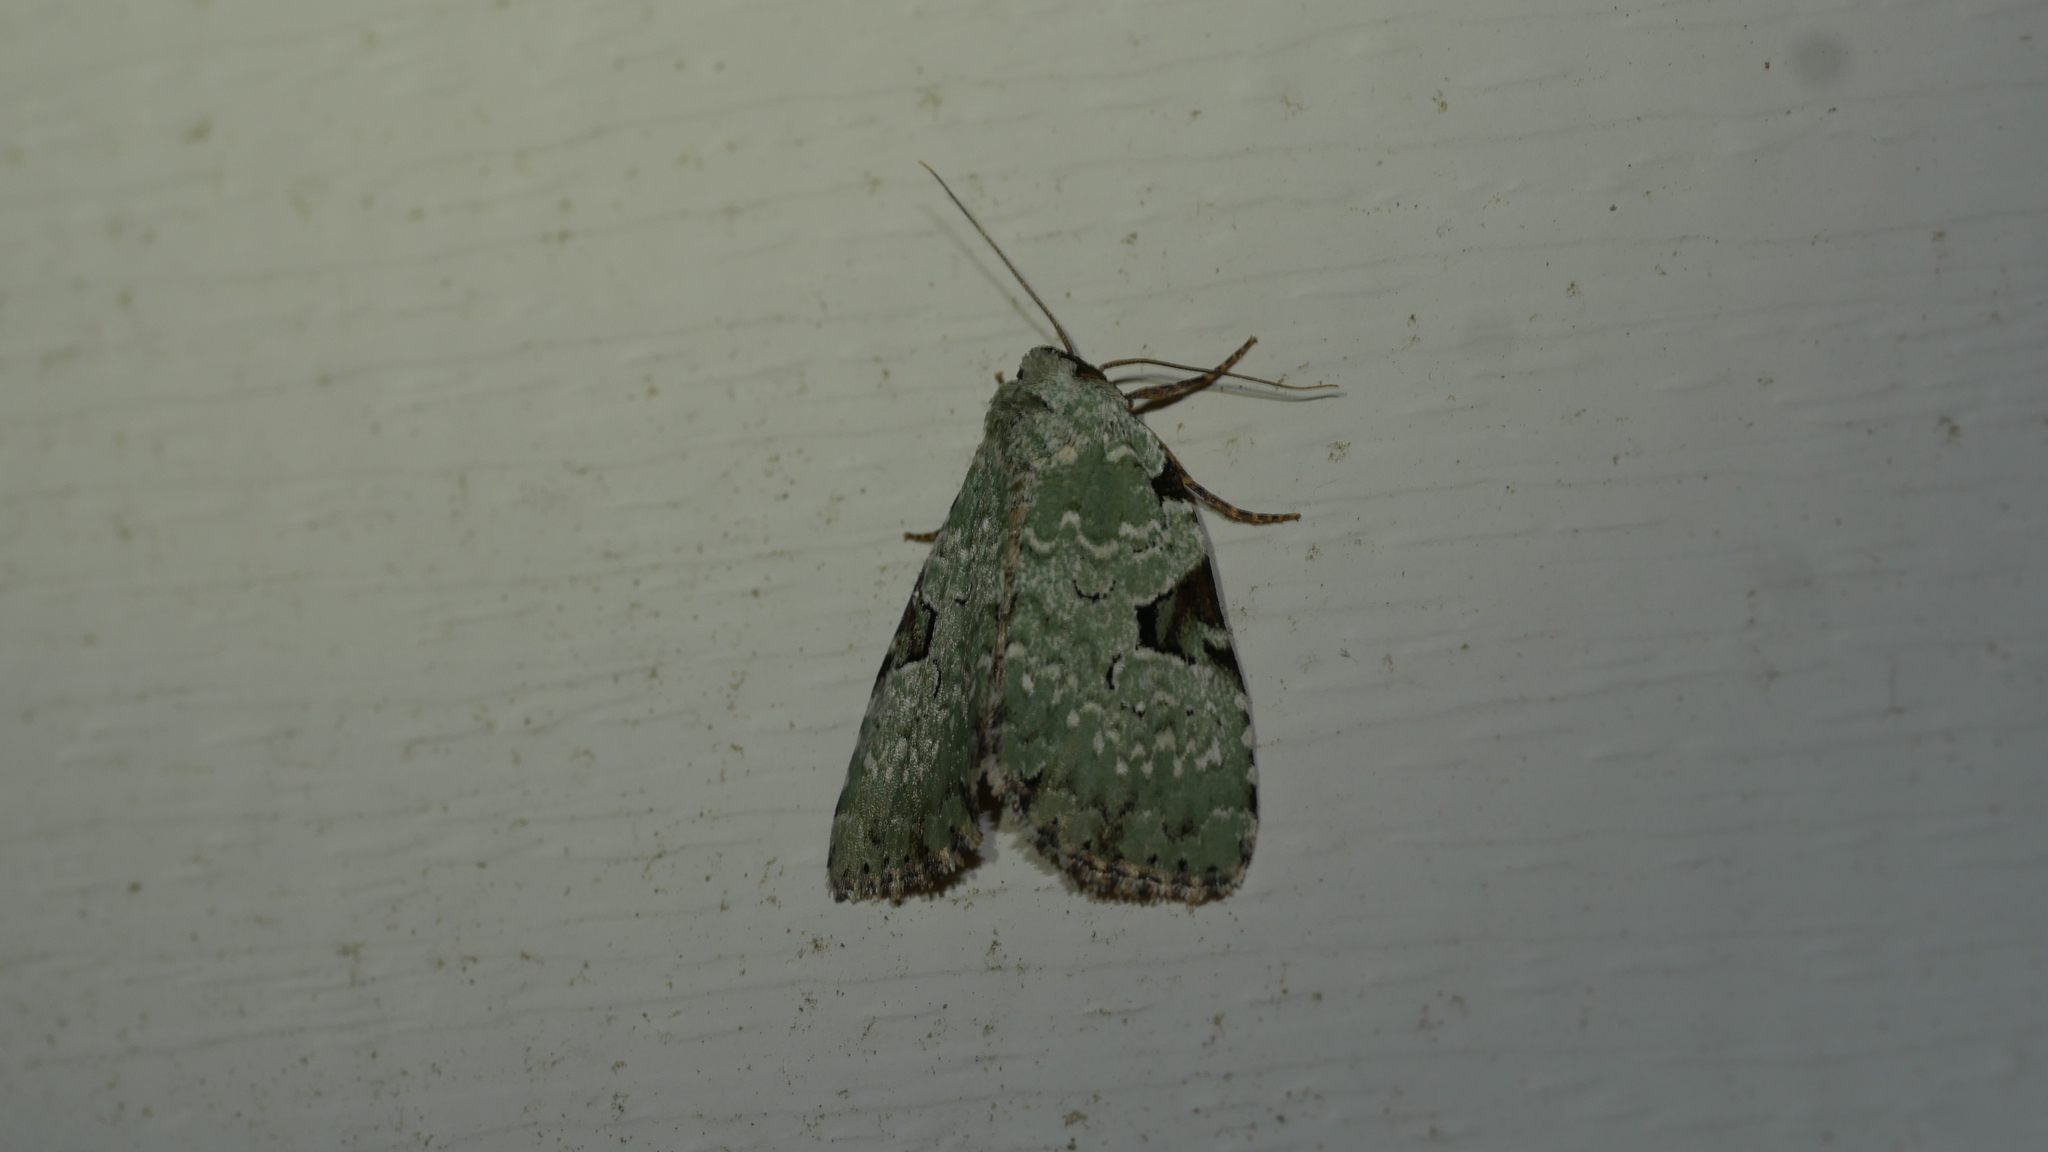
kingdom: Animalia
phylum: Arthropoda
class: Insecta
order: Lepidoptera
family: Noctuidae
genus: Leuconycta
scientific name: Leuconycta diphteroides
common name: Green leuconycta moth
